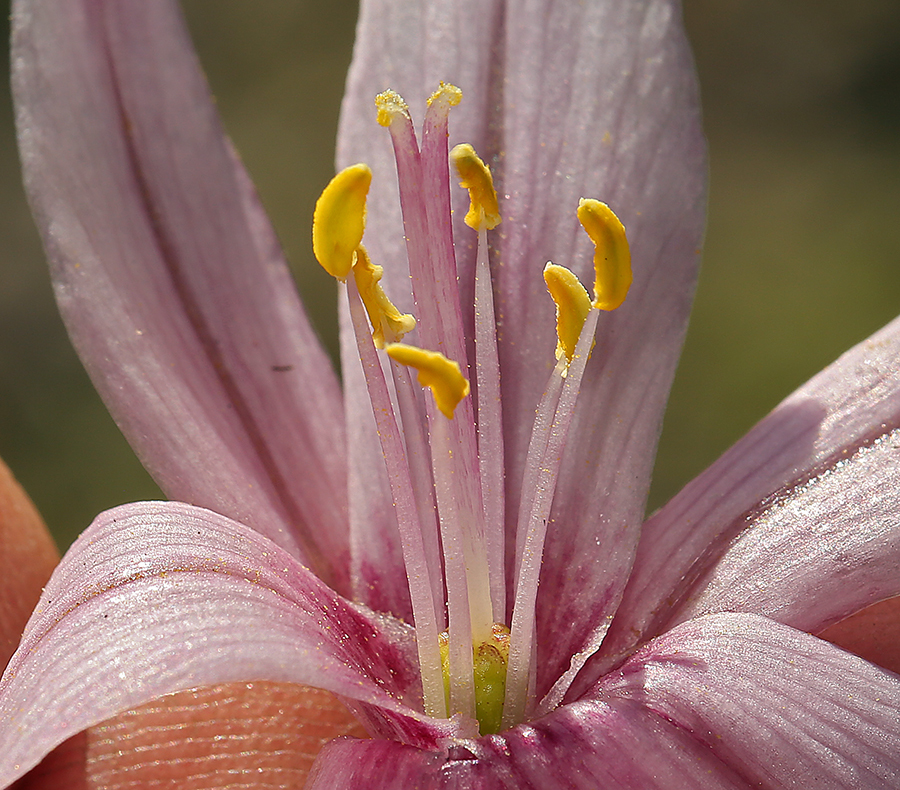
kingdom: Plantae
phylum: Tracheophyta
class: Liliopsida
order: Liliales
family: Liliaceae
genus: Fritillaria
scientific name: Fritillaria pluriflora
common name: Adobe-lily
